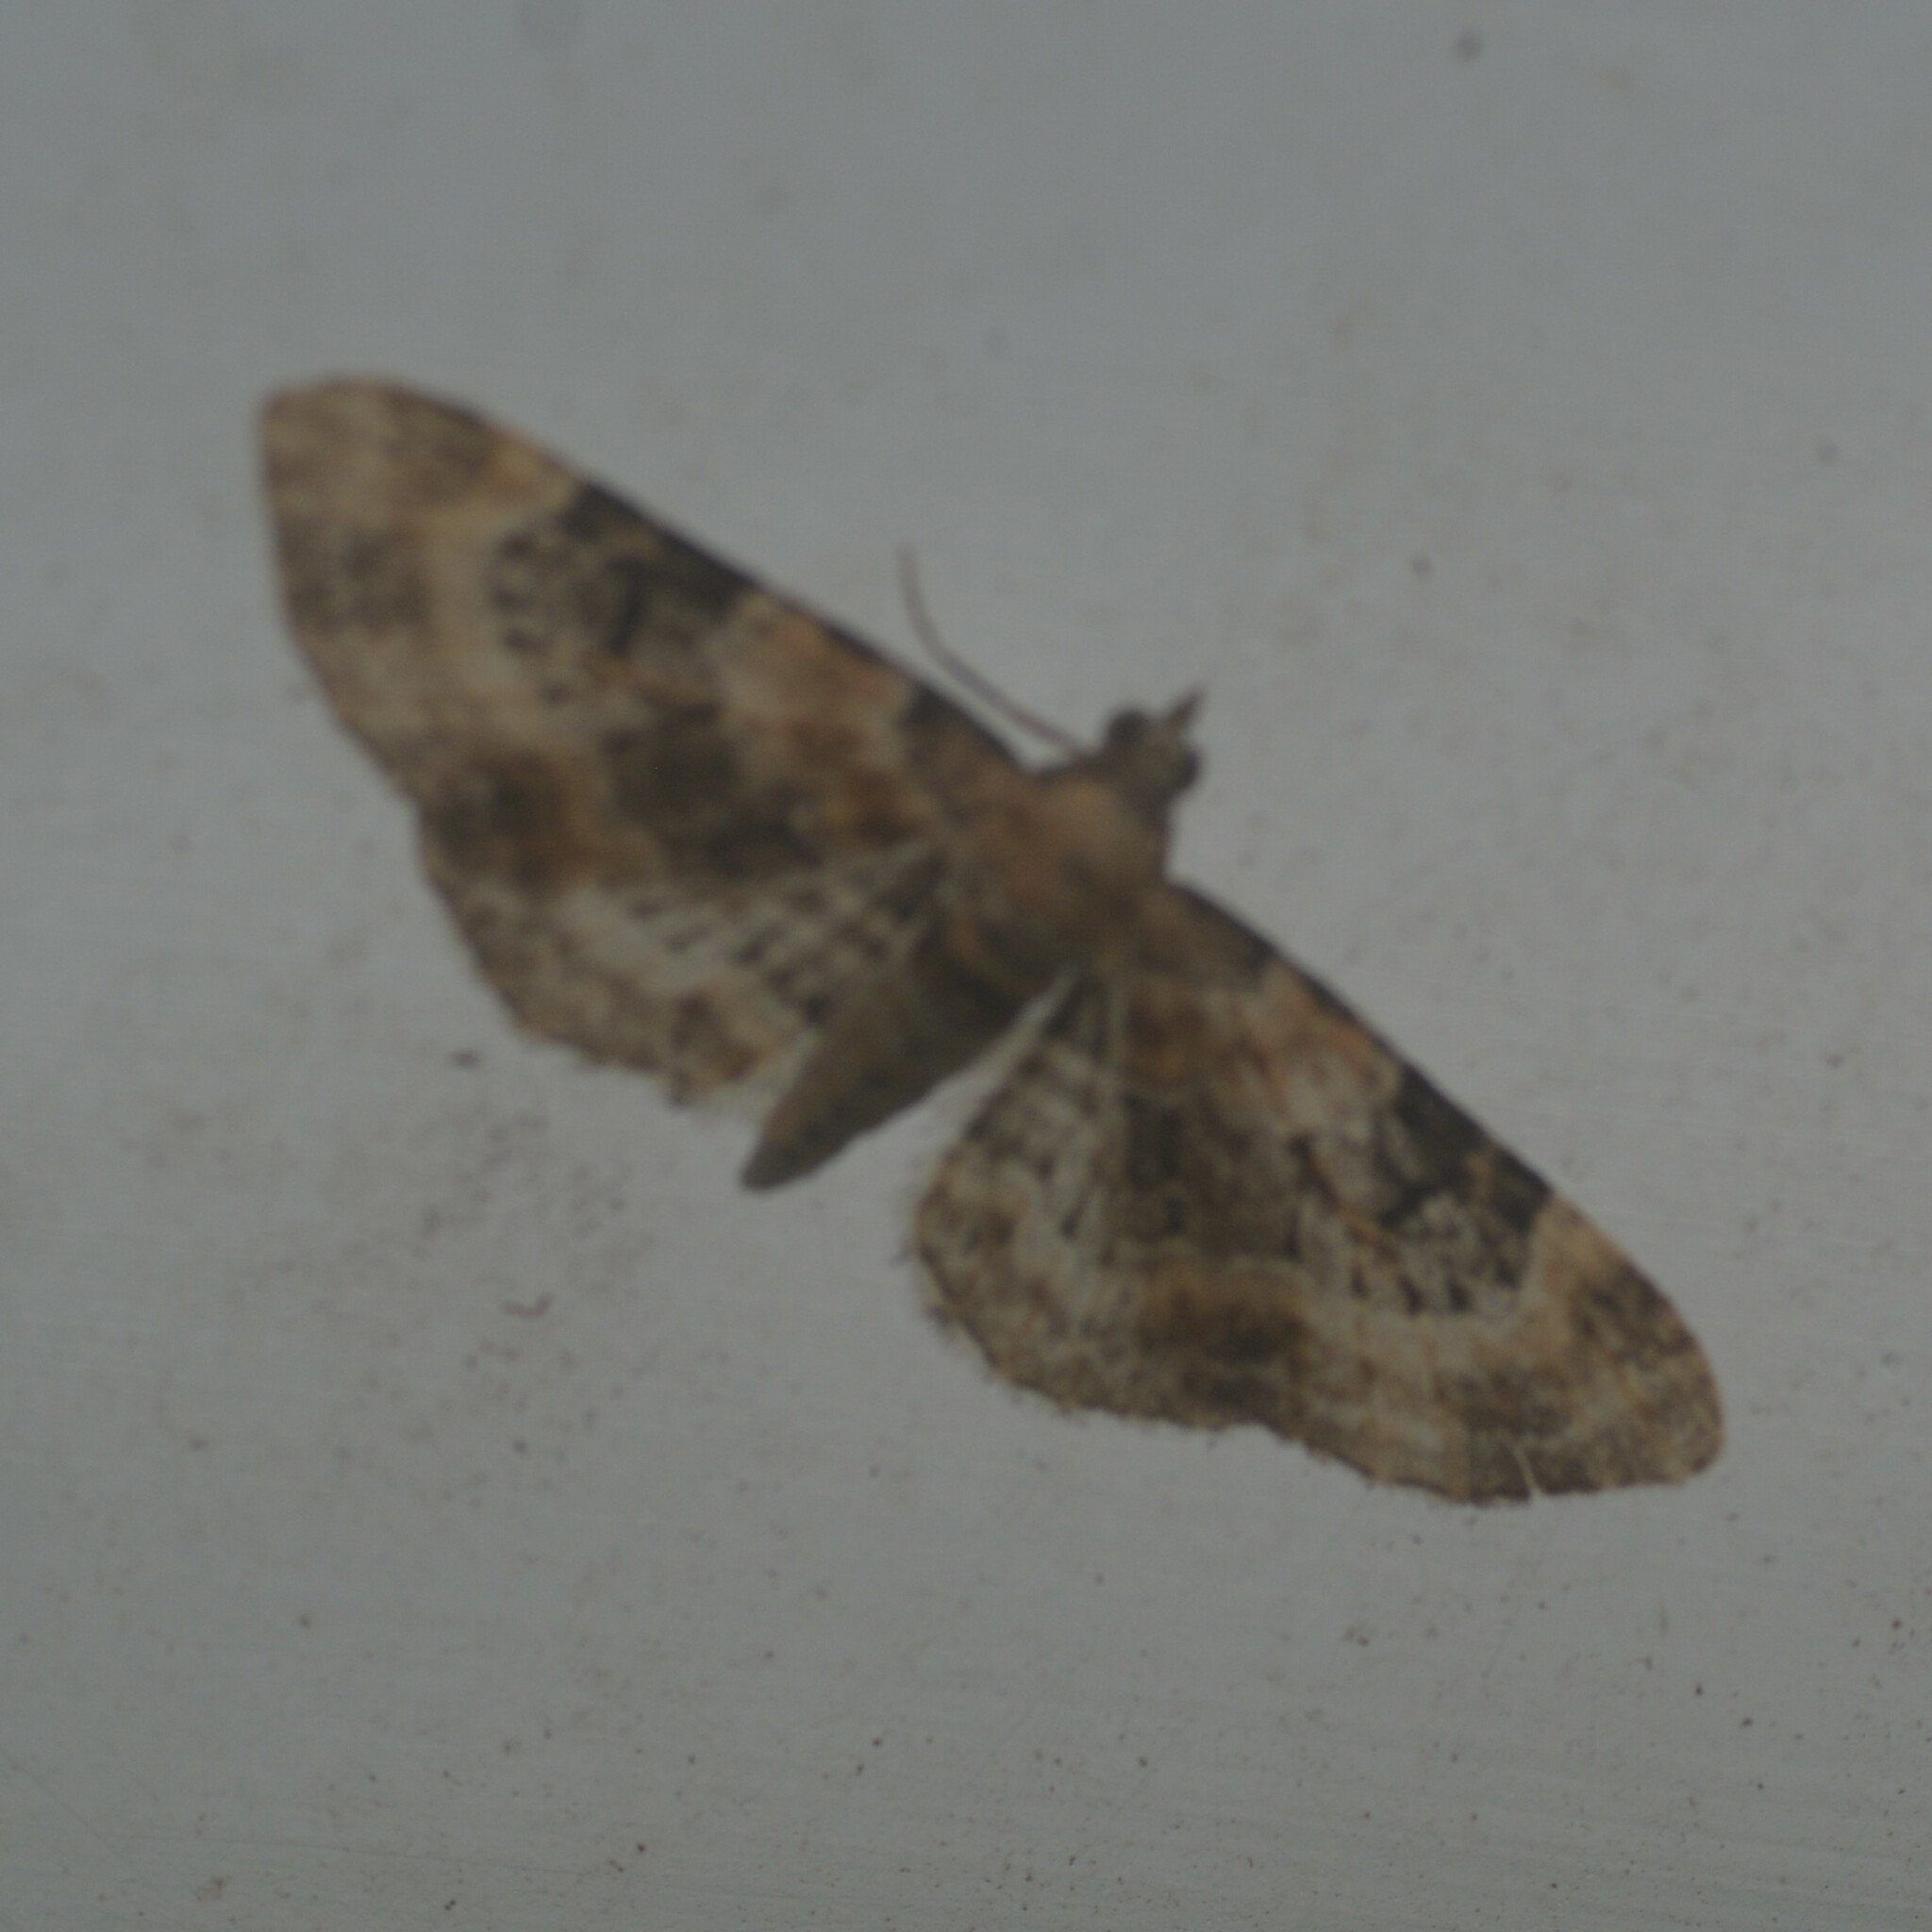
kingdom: Animalia
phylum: Arthropoda
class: Insecta
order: Lepidoptera
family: Geometridae
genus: Eupithecia
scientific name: Eupithecia pulchellata
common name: Foxglove pug
